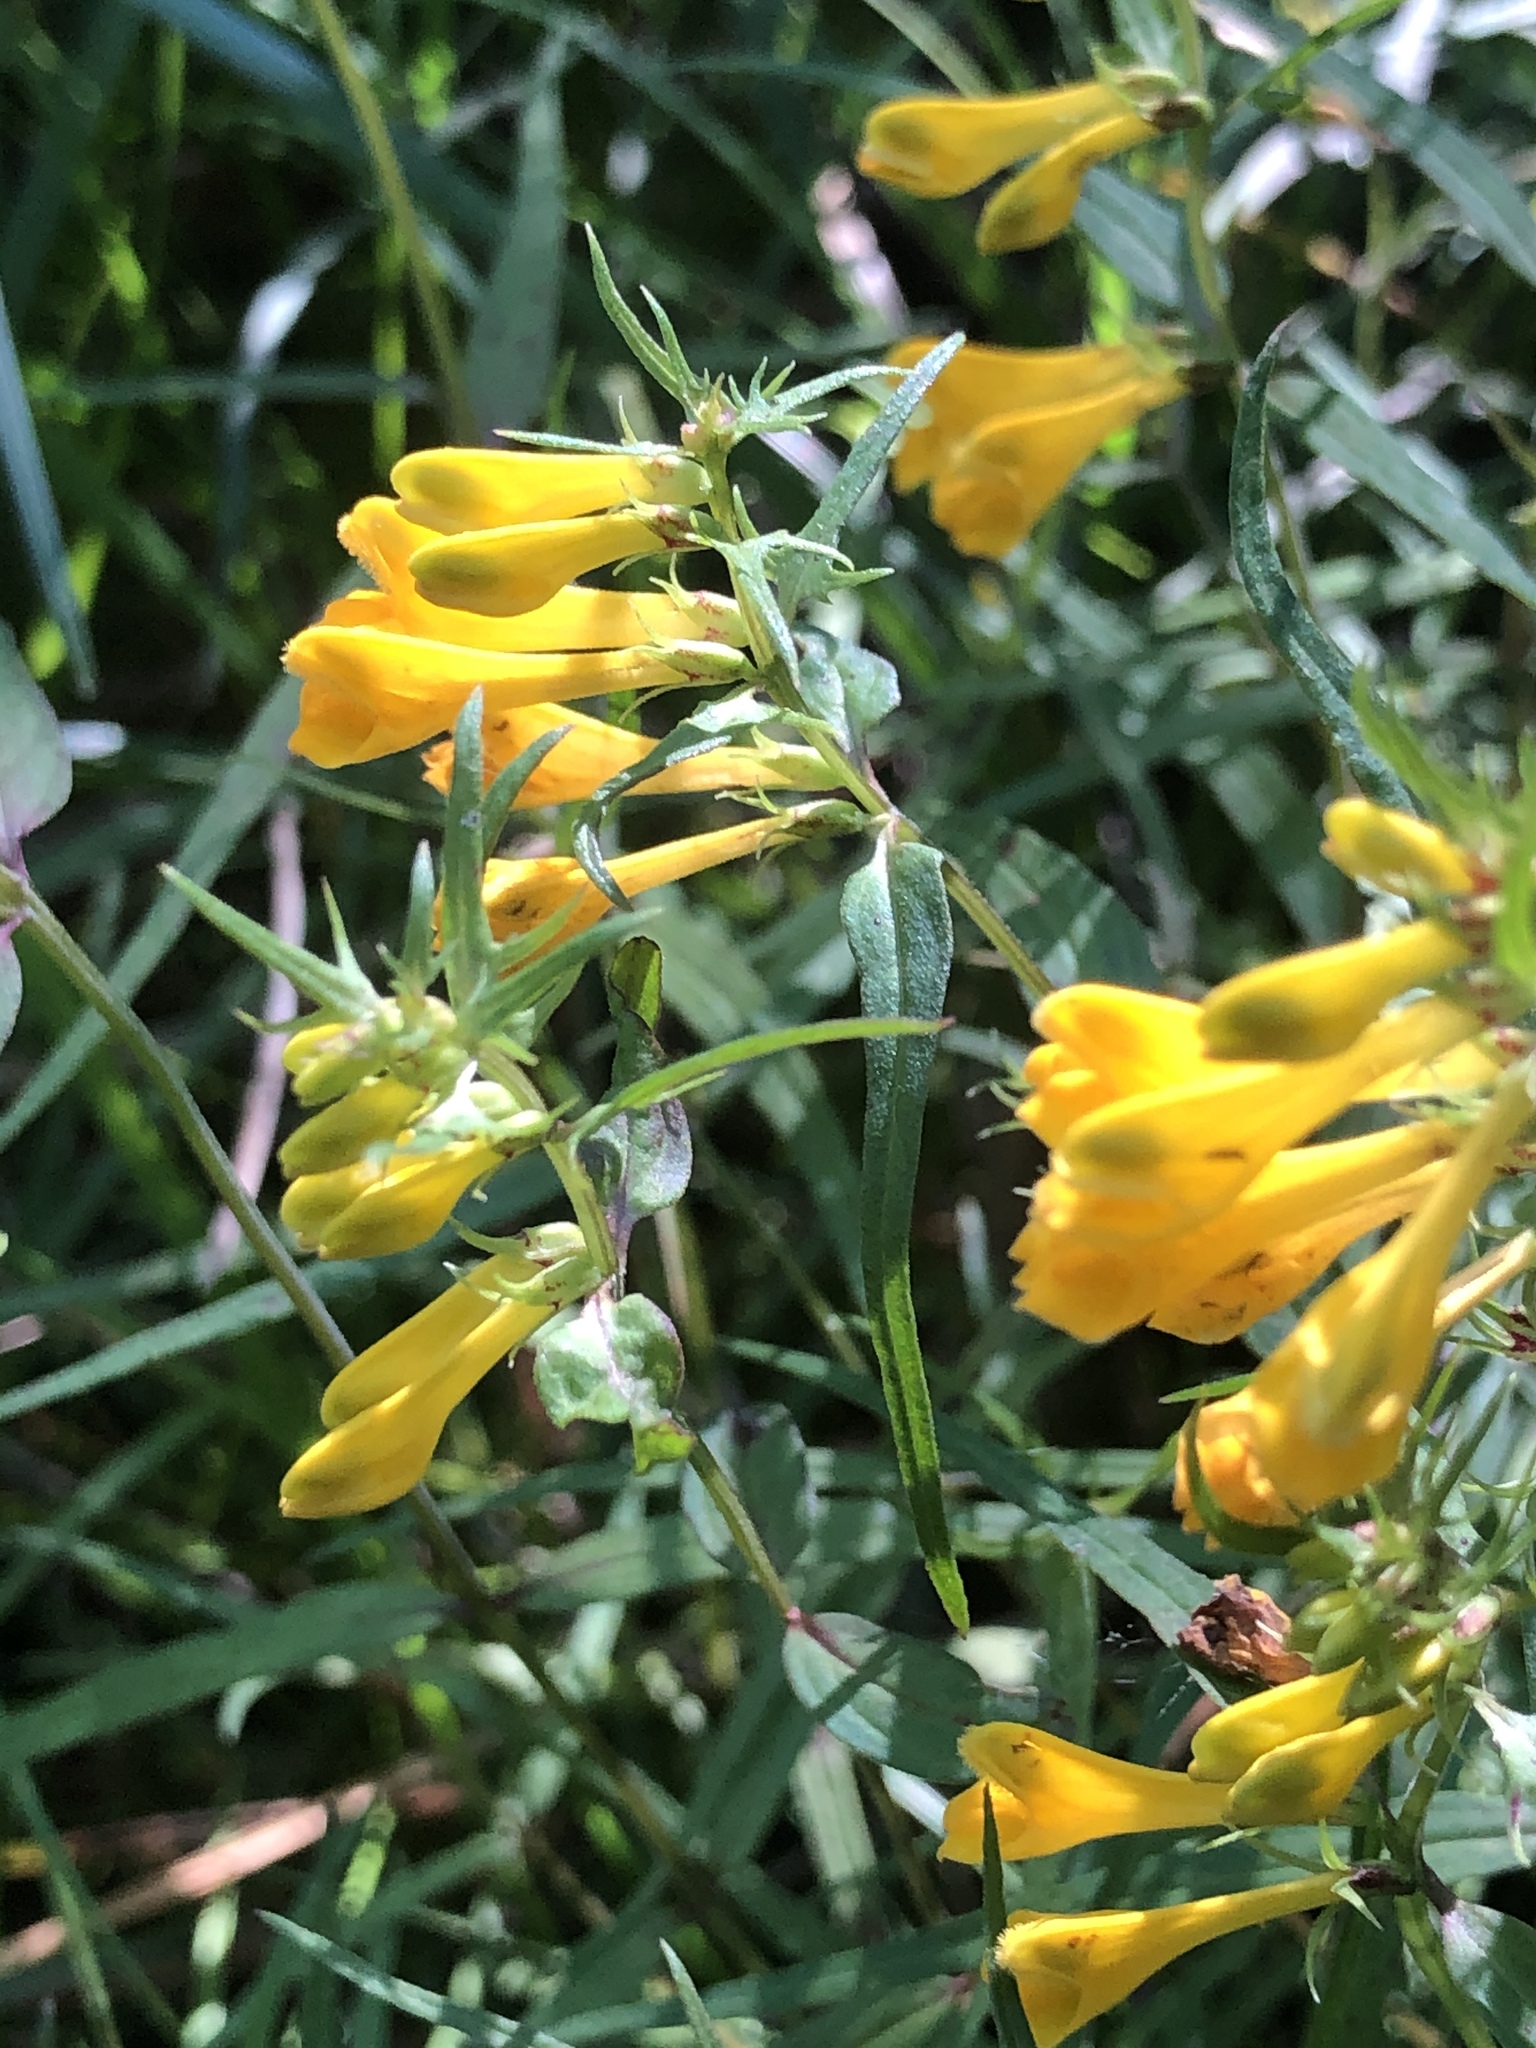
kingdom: Plantae
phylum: Tracheophyta
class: Magnoliopsida
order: Lamiales
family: Orobanchaceae
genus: Melampyrum
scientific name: Melampyrum pratense
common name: Common cow-wheat
